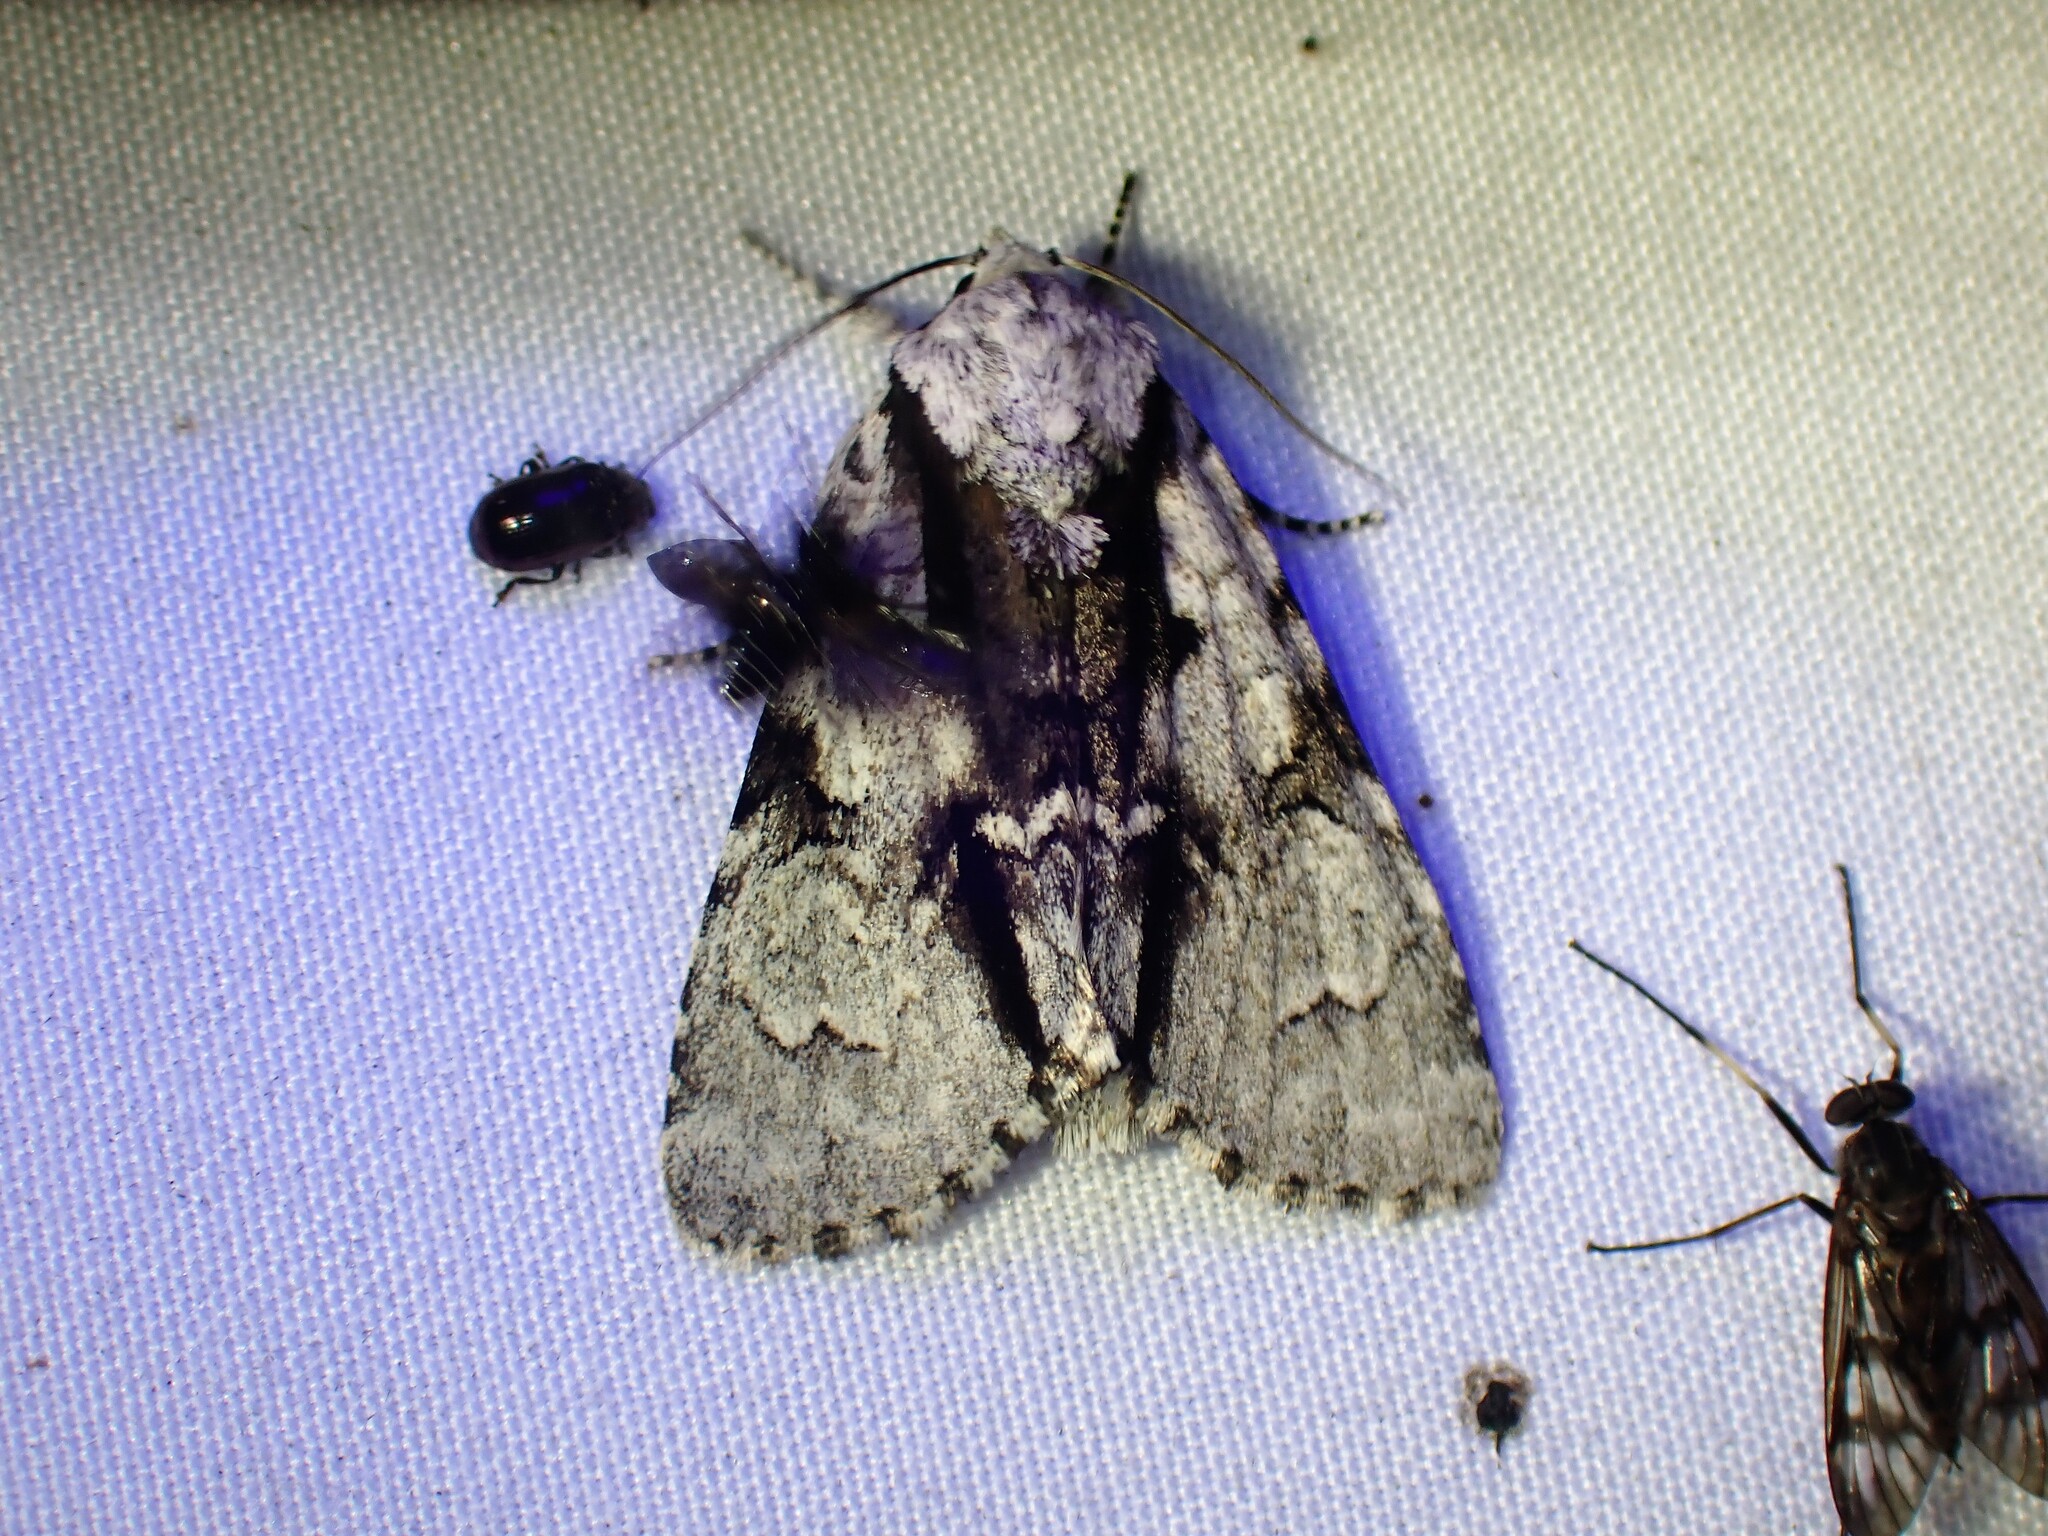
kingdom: Animalia
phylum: Arthropoda
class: Insecta
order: Lepidoptera
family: Noctuidae
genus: Acronicta
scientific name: Acronicta funeralis
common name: Funerary dagger
